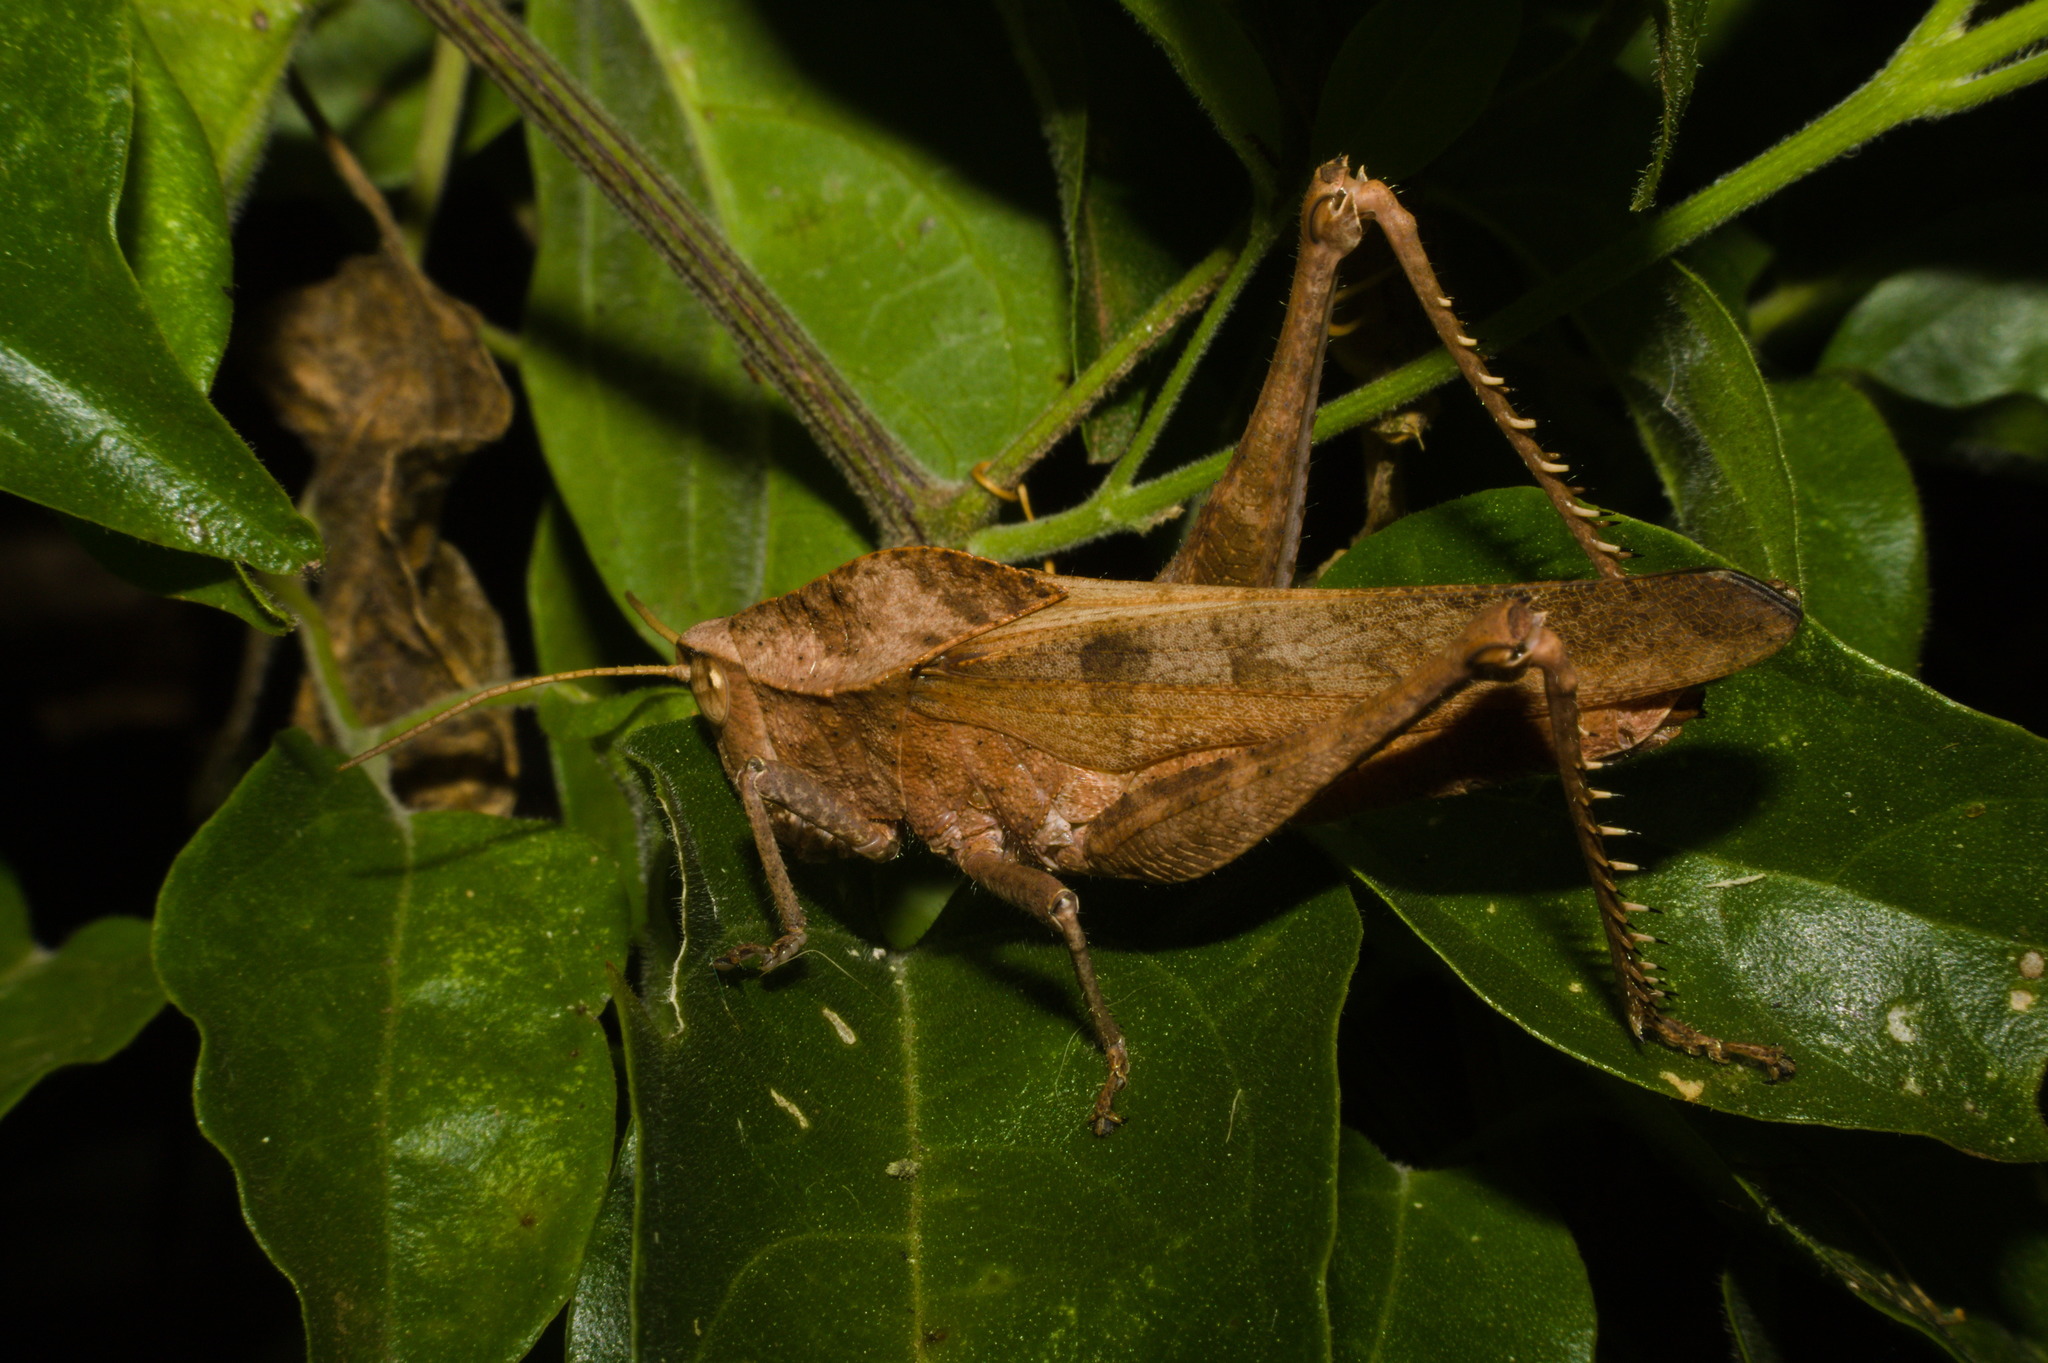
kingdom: Animalia
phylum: Arthropoda
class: Insecta
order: Orthoptera
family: Romaleidae
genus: Xyleus
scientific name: Xyleus discoideus
